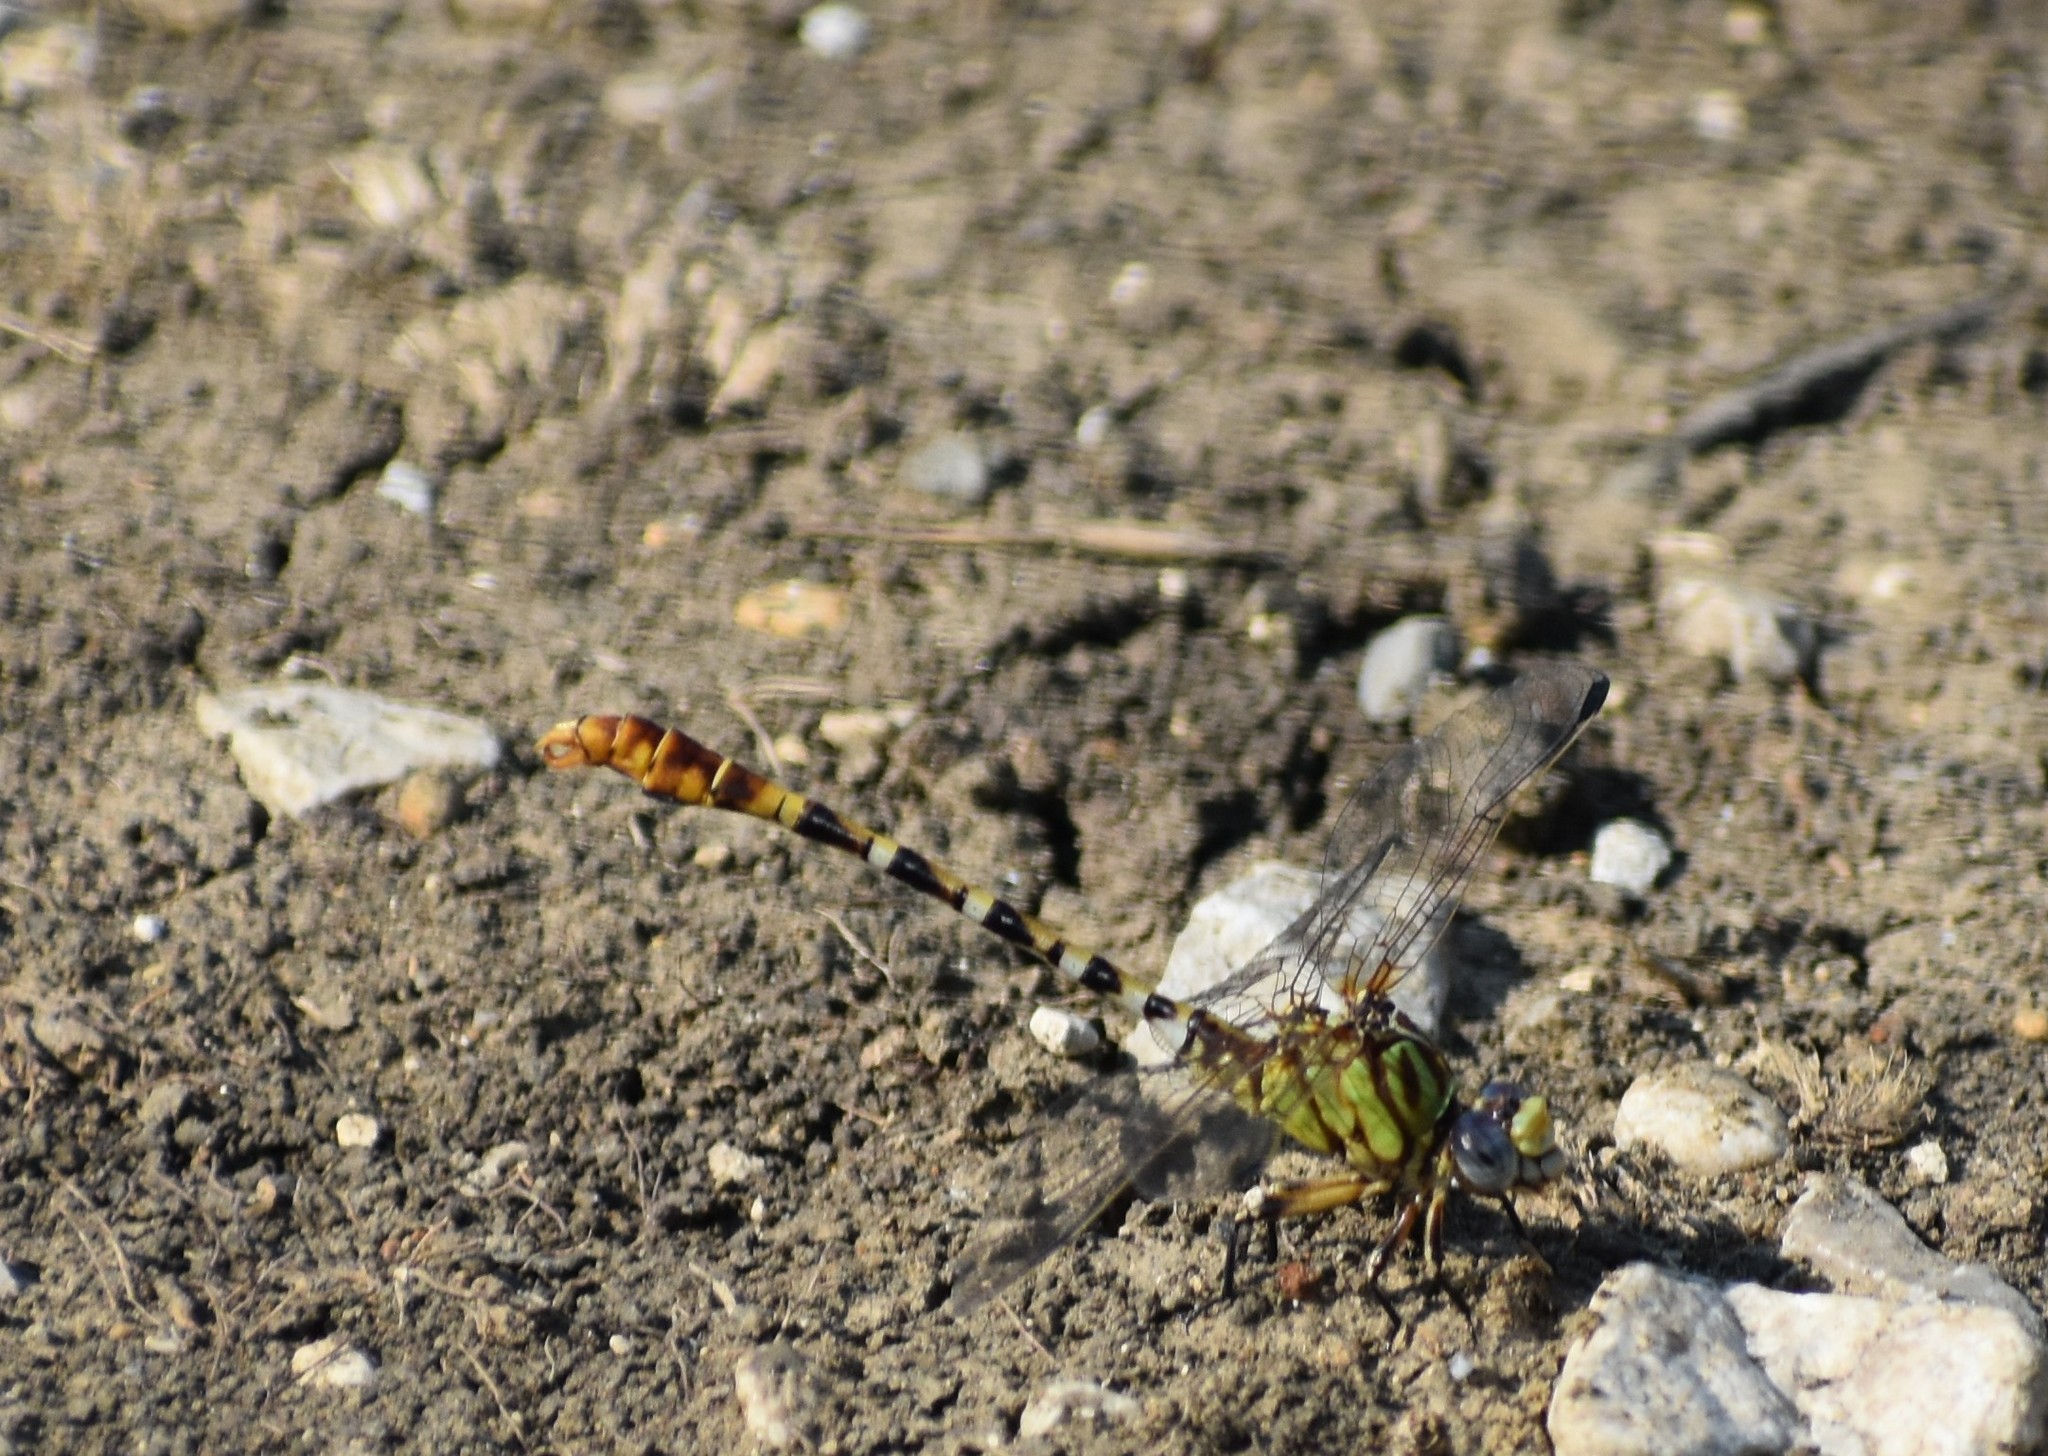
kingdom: Animalia
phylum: Arthropoda
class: Insecta
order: Odonata
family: Gomphidae
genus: Erpetogomphus
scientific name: Erpetogomphus designatus
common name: Eastern ringtail
